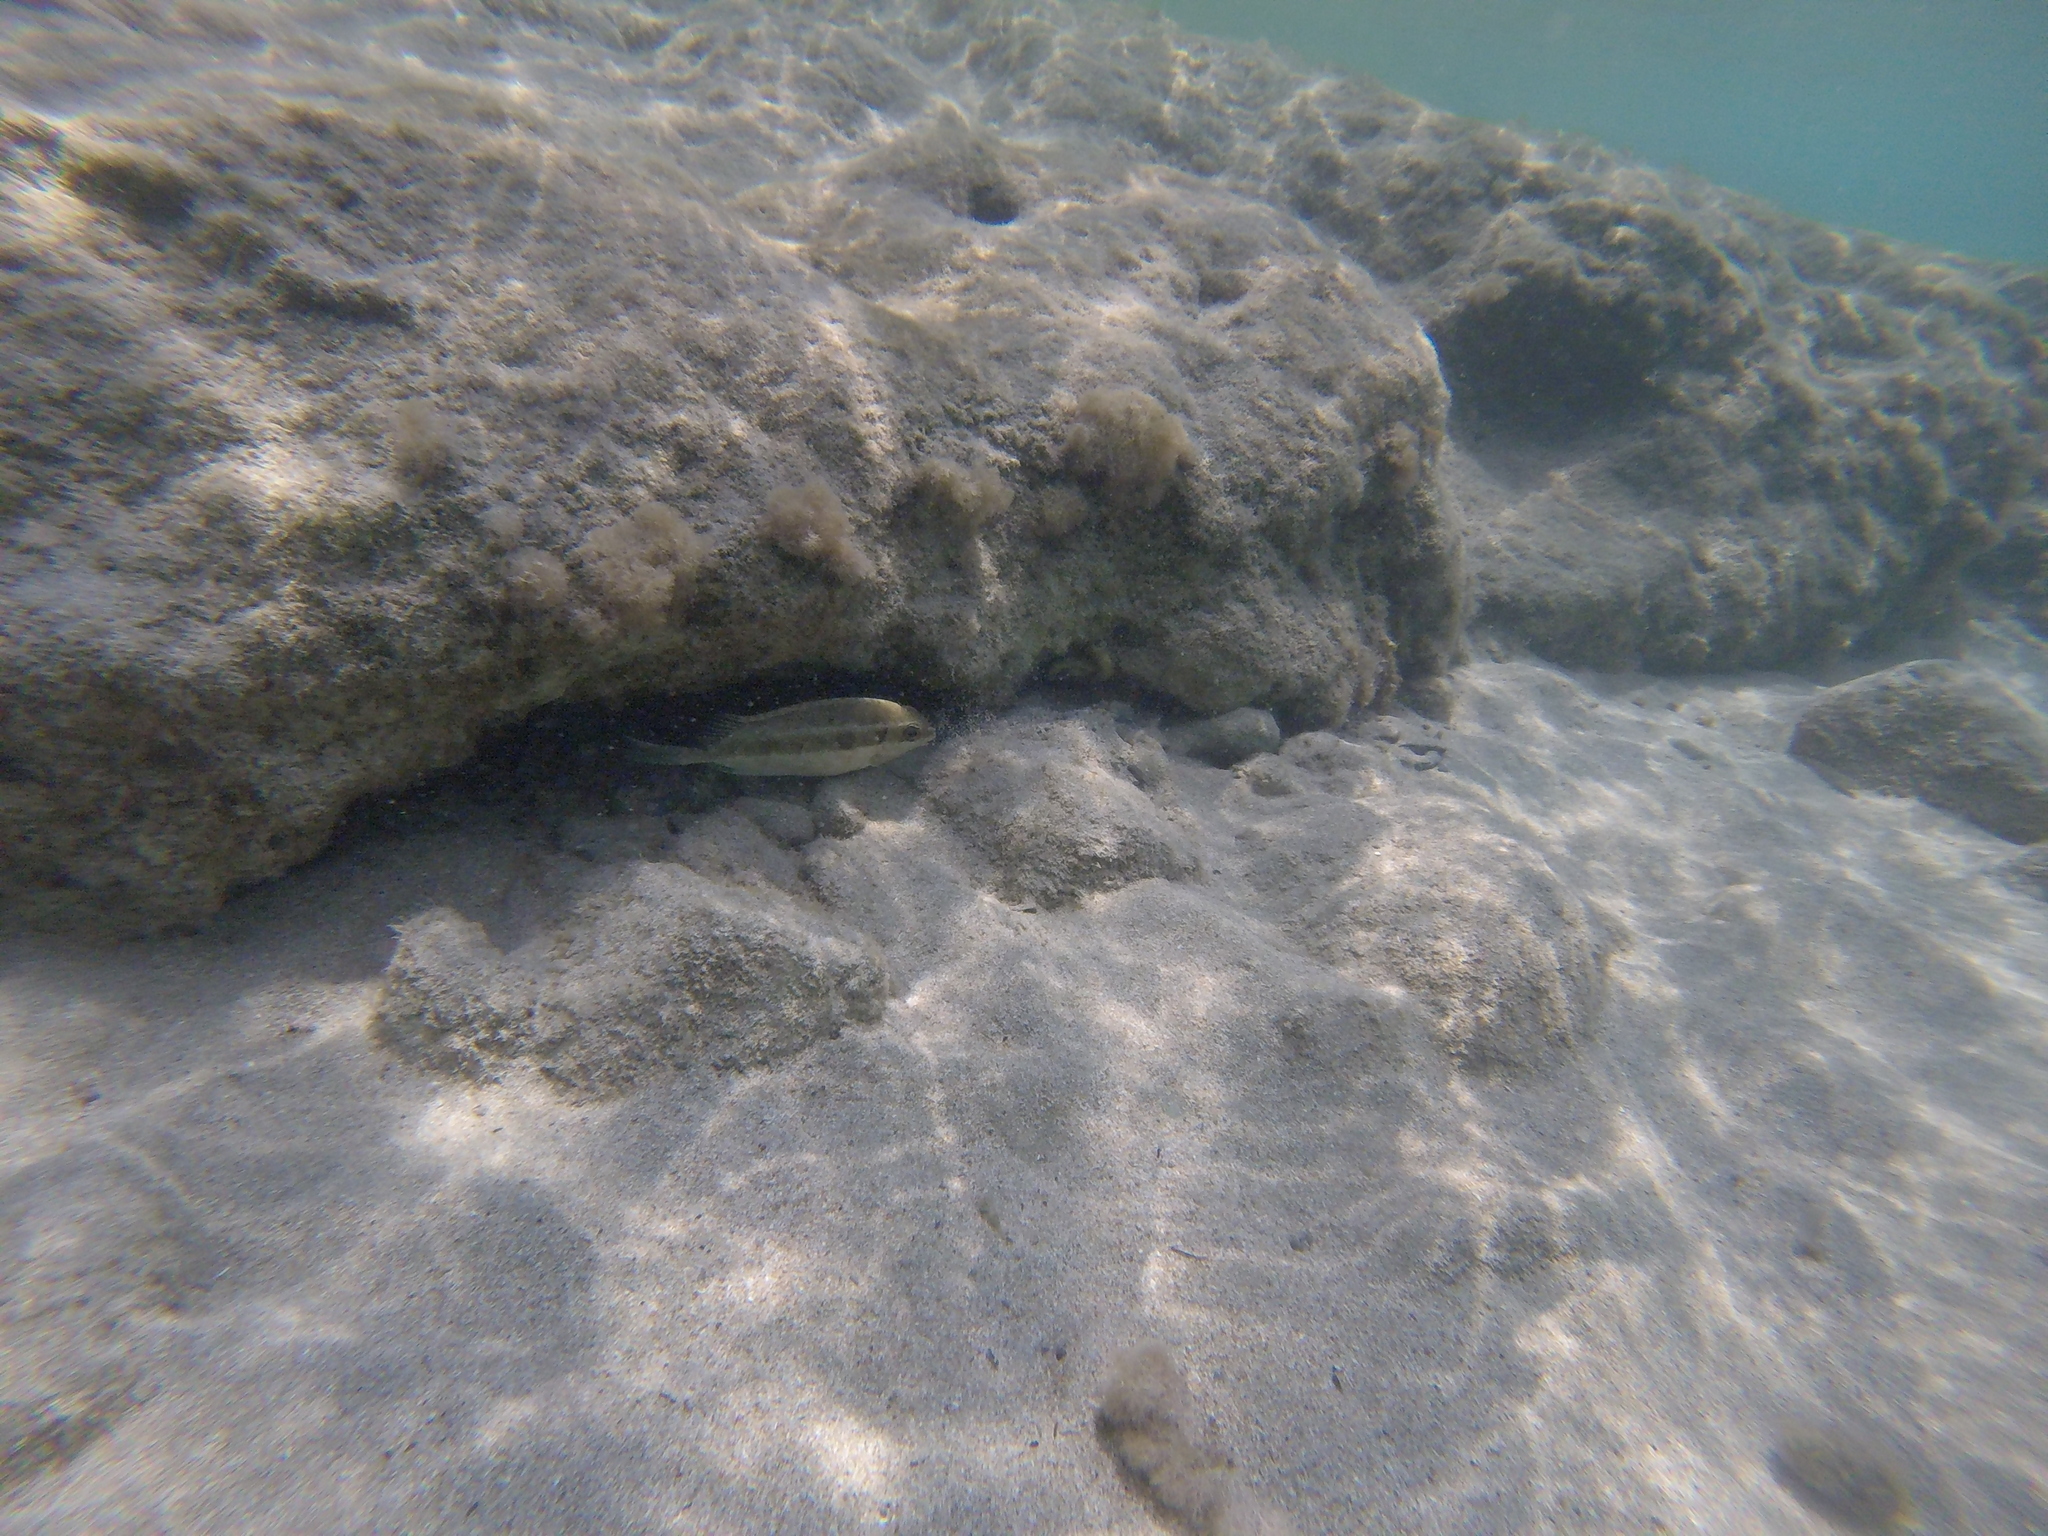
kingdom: Animalia
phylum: Chordata
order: Perciformes
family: Siganidae
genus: Siganus
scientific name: Siganus luridus
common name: Dusky spinefoot
